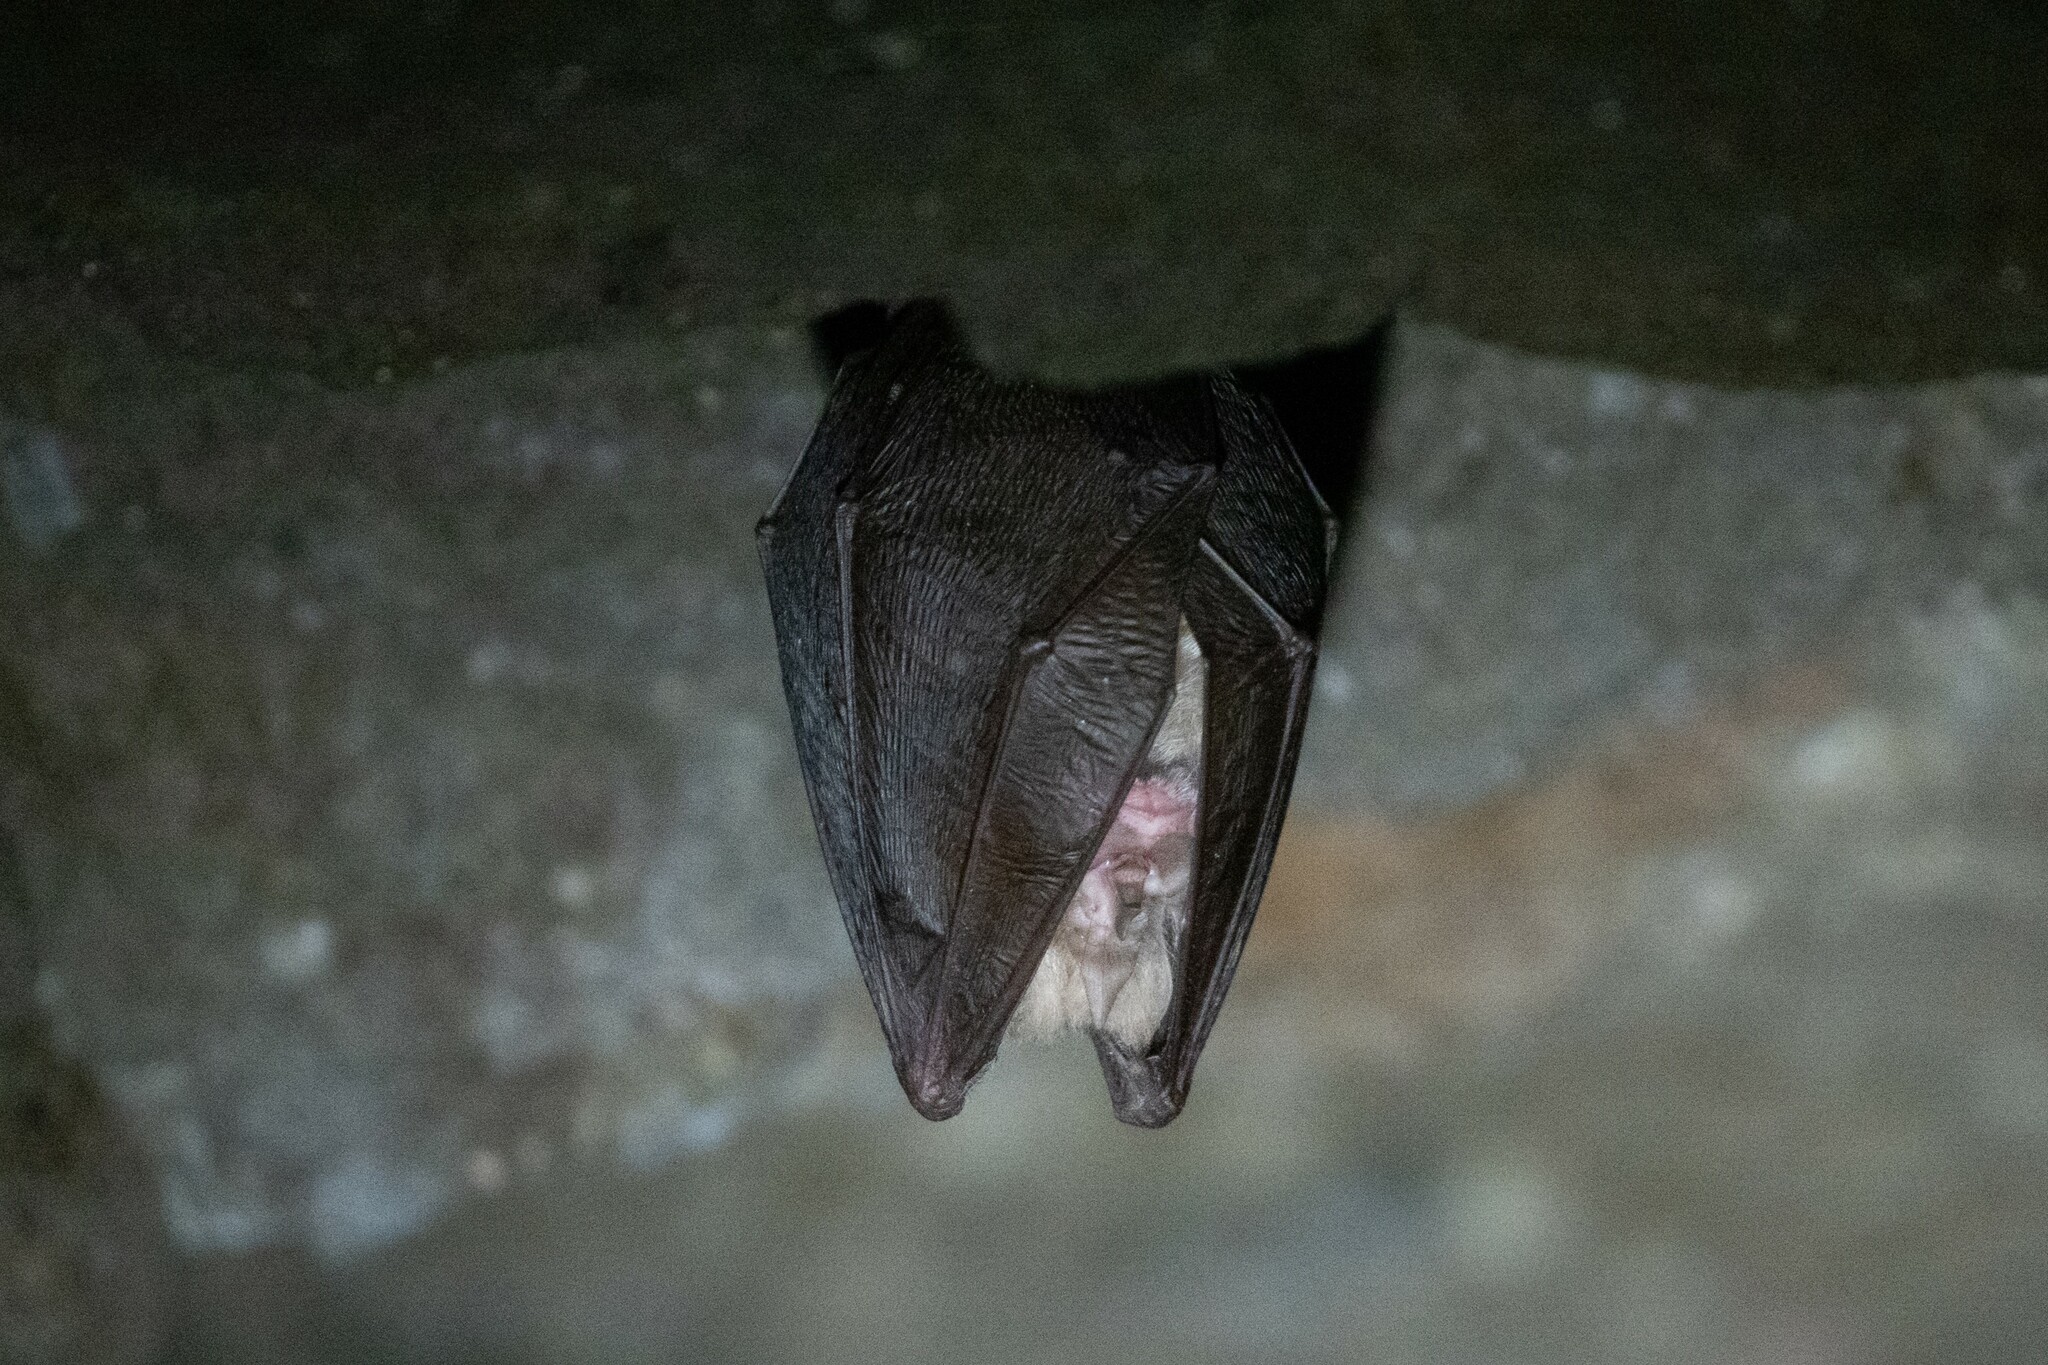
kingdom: Animalia
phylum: Chordata
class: Mammalia
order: Chiroptera
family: Rhinolophidae
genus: Rhinolophus
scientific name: Rhinolophus hipposideros
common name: Lesser horseshoe bat
